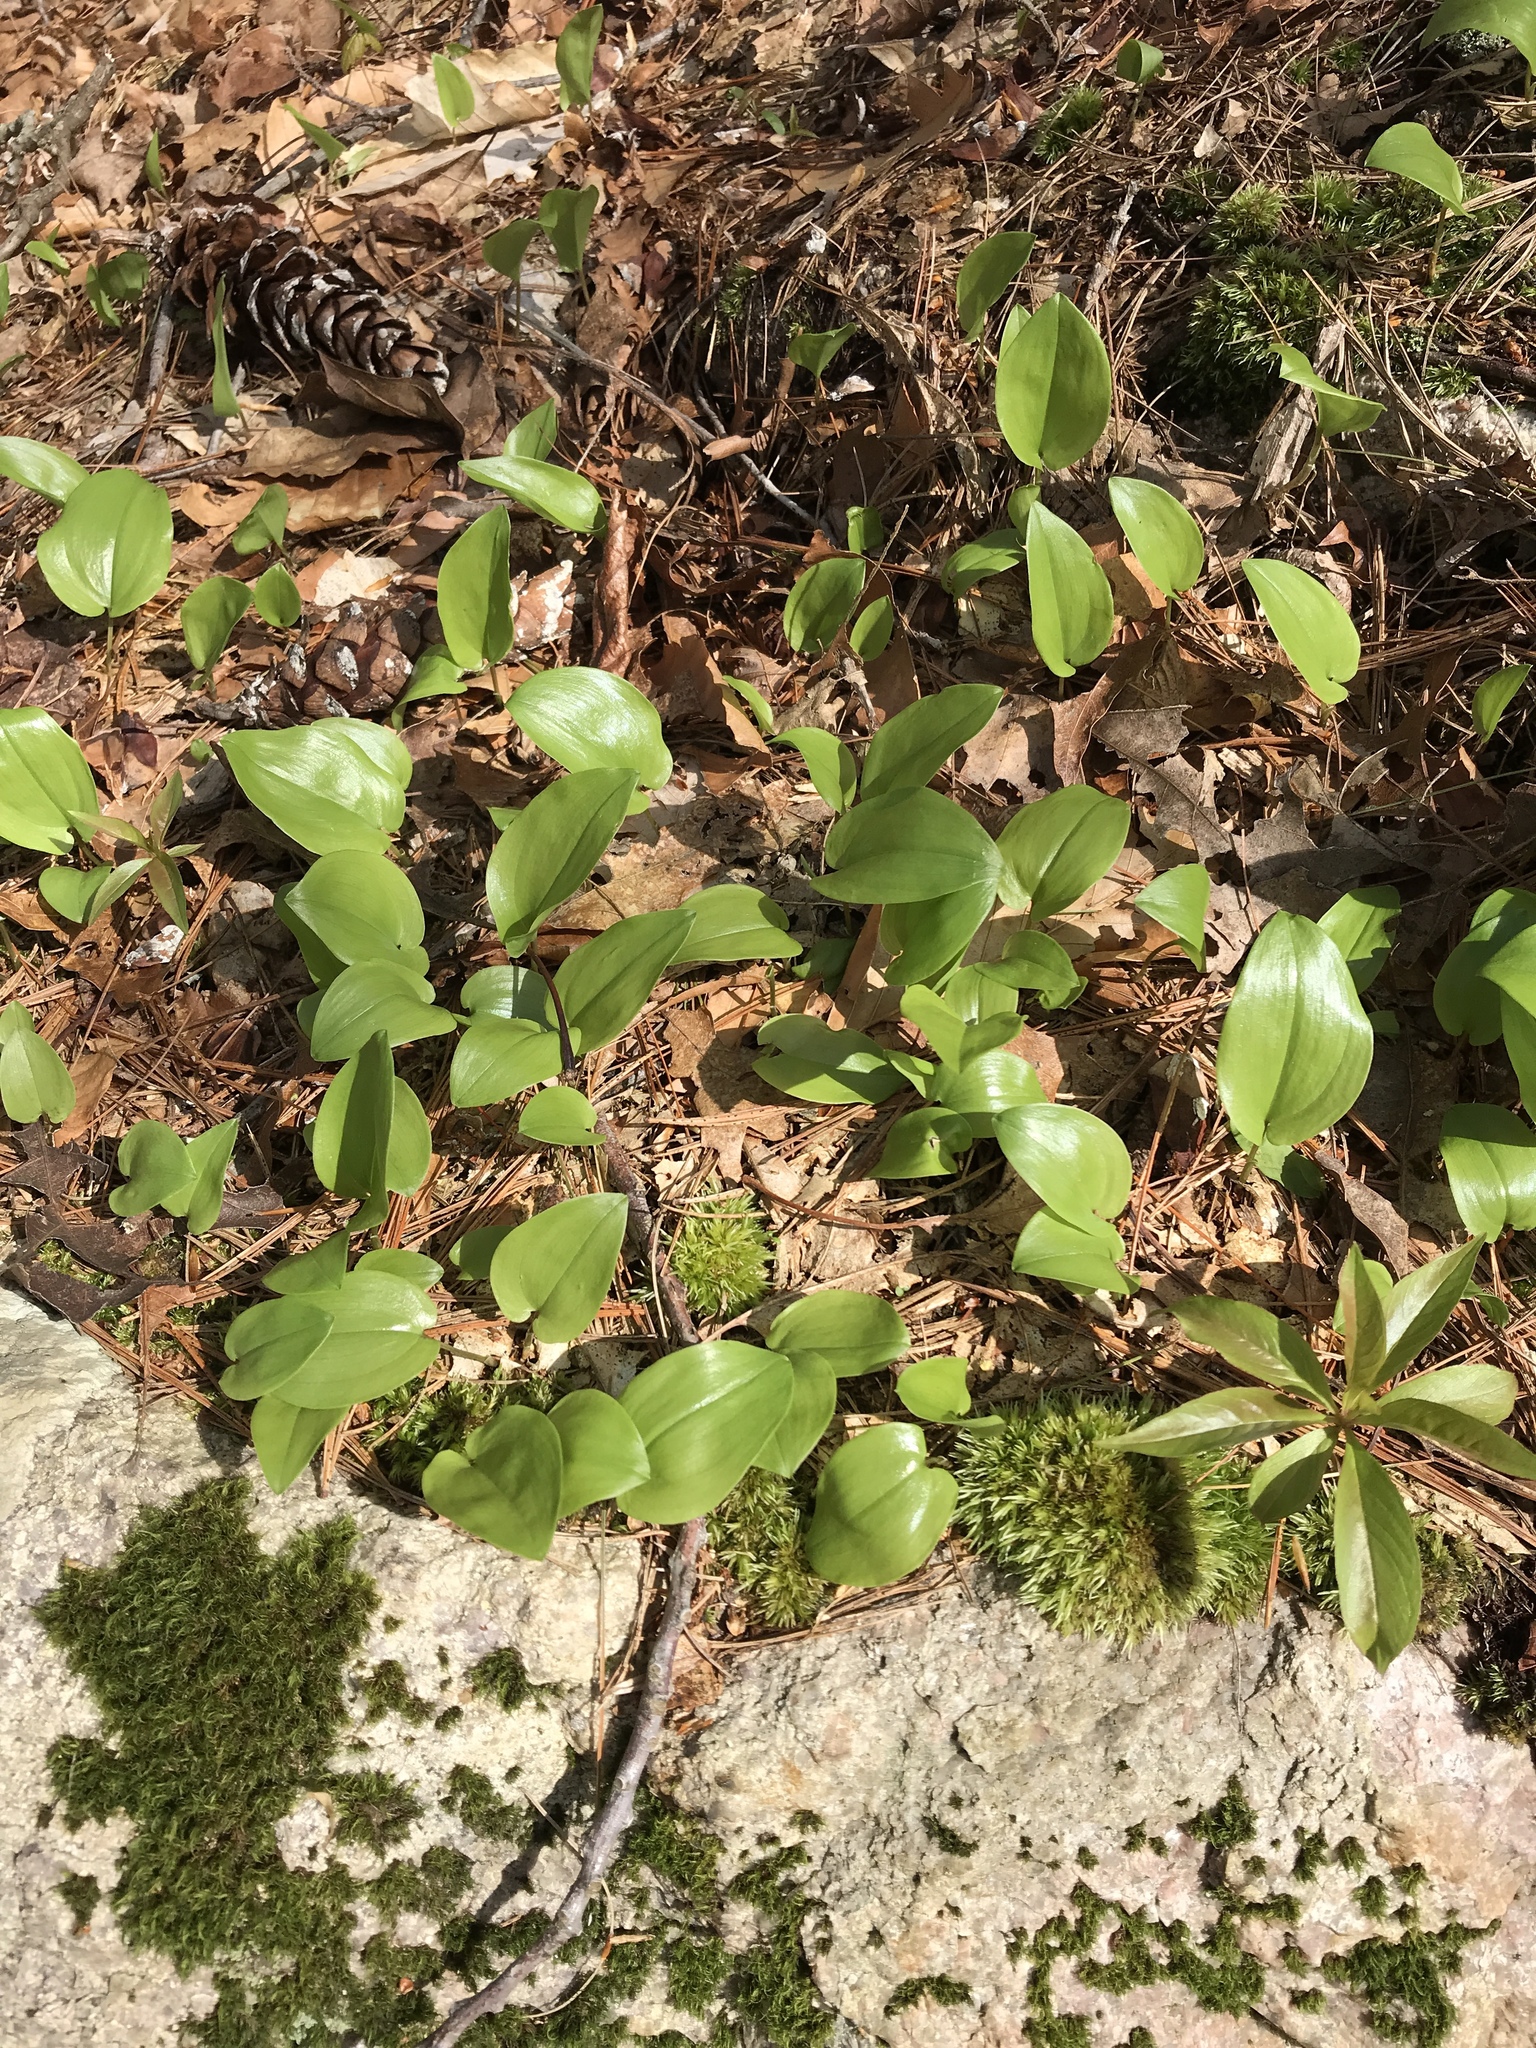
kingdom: Plantae
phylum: Tracheophyta
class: Liliopsida
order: Asparagales
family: Asparagaceae
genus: Maianthemum
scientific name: Maianthemum canadense
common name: False lily-of-the-valley
